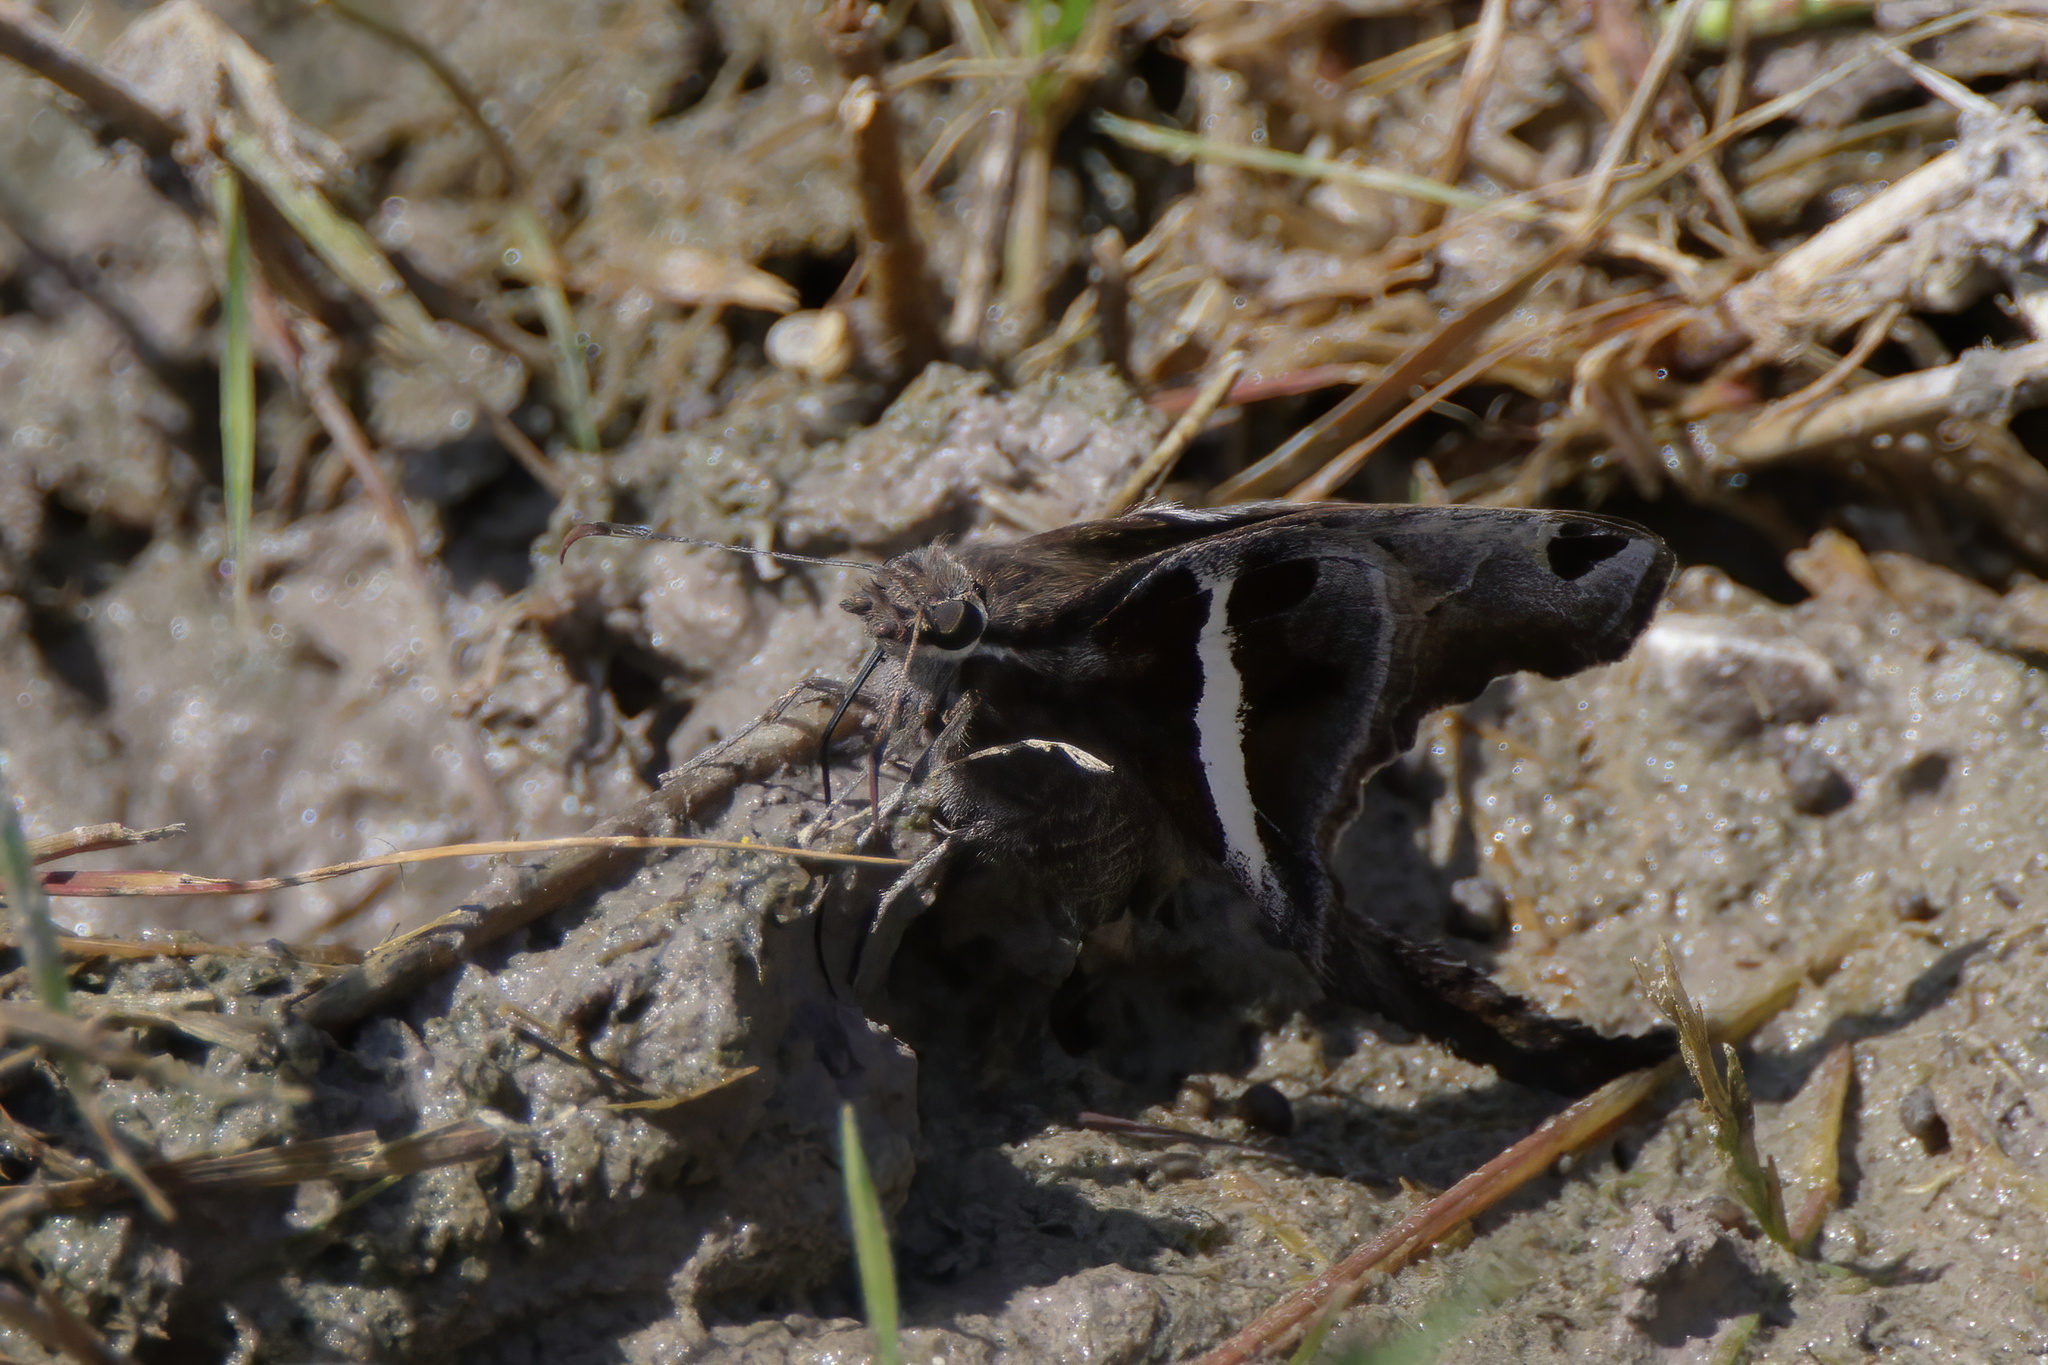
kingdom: Animalia
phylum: Arthropoda
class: Insecta
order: Lepidoptera
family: Hesperiidae
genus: Chioides
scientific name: Chioides catillus
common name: Silverbanded skipper
